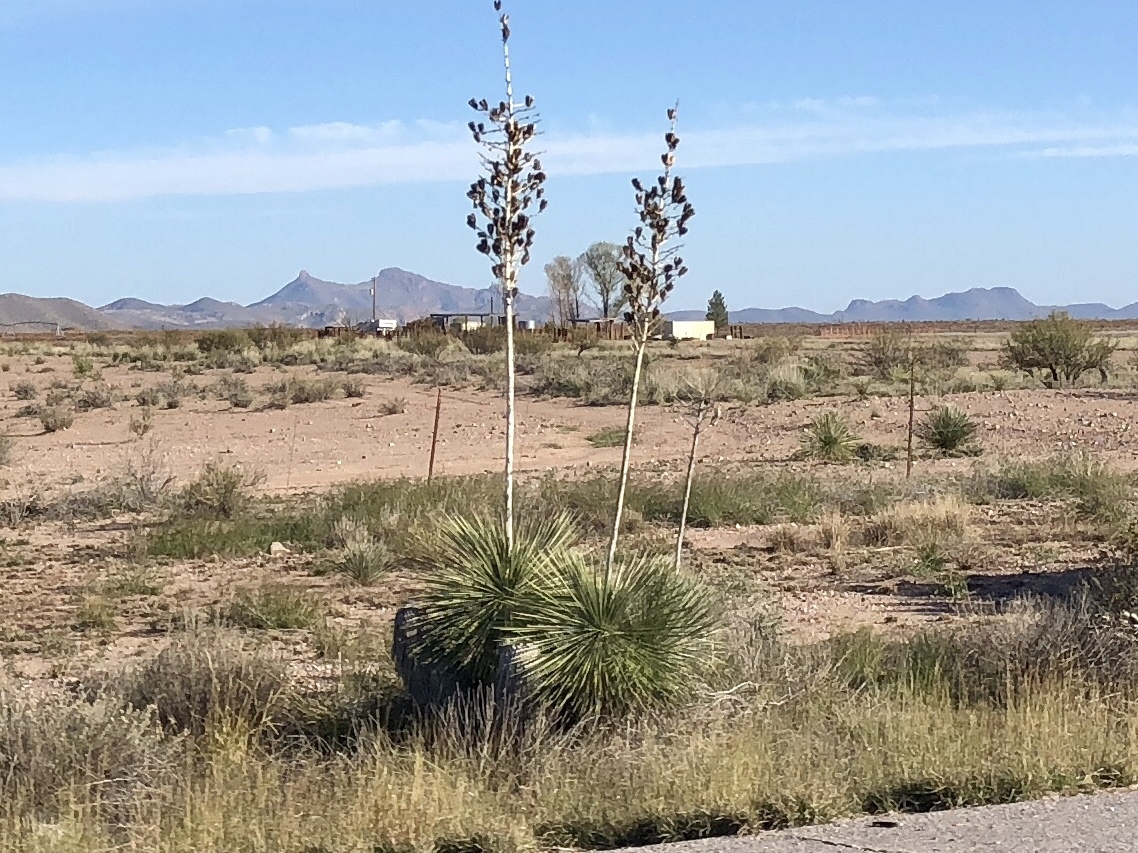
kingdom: Plantae
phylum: Tracheophyta
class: Liliopsida
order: Asparagales
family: Asparagaceae
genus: Yucca
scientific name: Yucca elata
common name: Palmella
